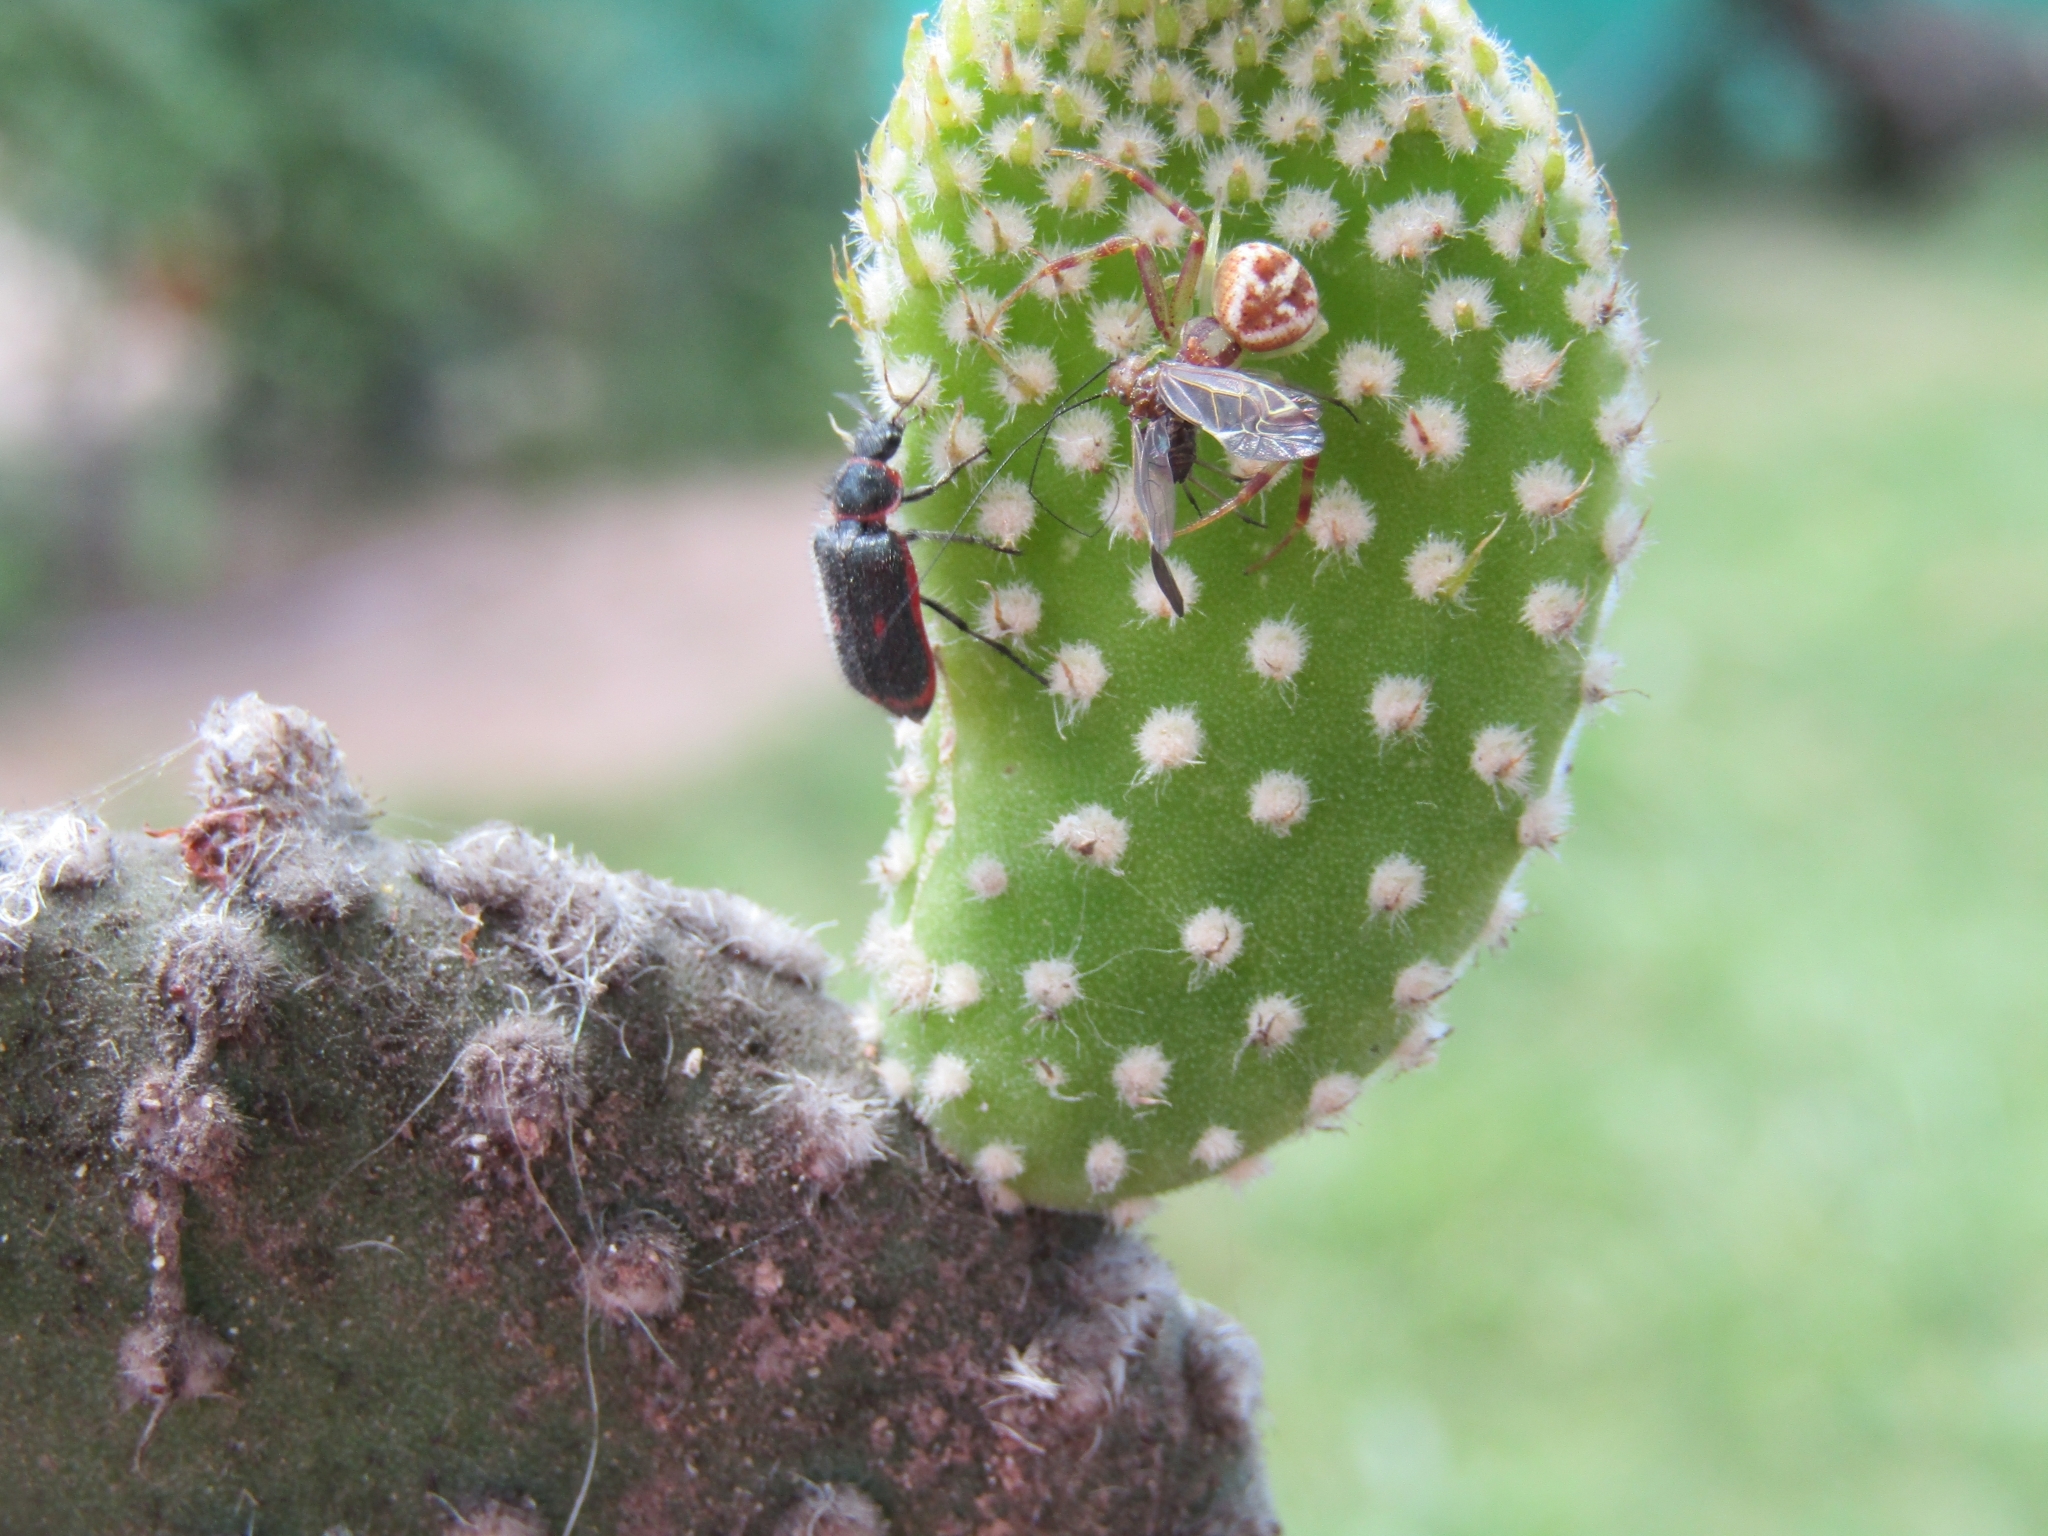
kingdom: Animalia
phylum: Arthropoda
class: Insecta
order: Coleoptera
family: Melyridae
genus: Astylus
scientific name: Astylus
